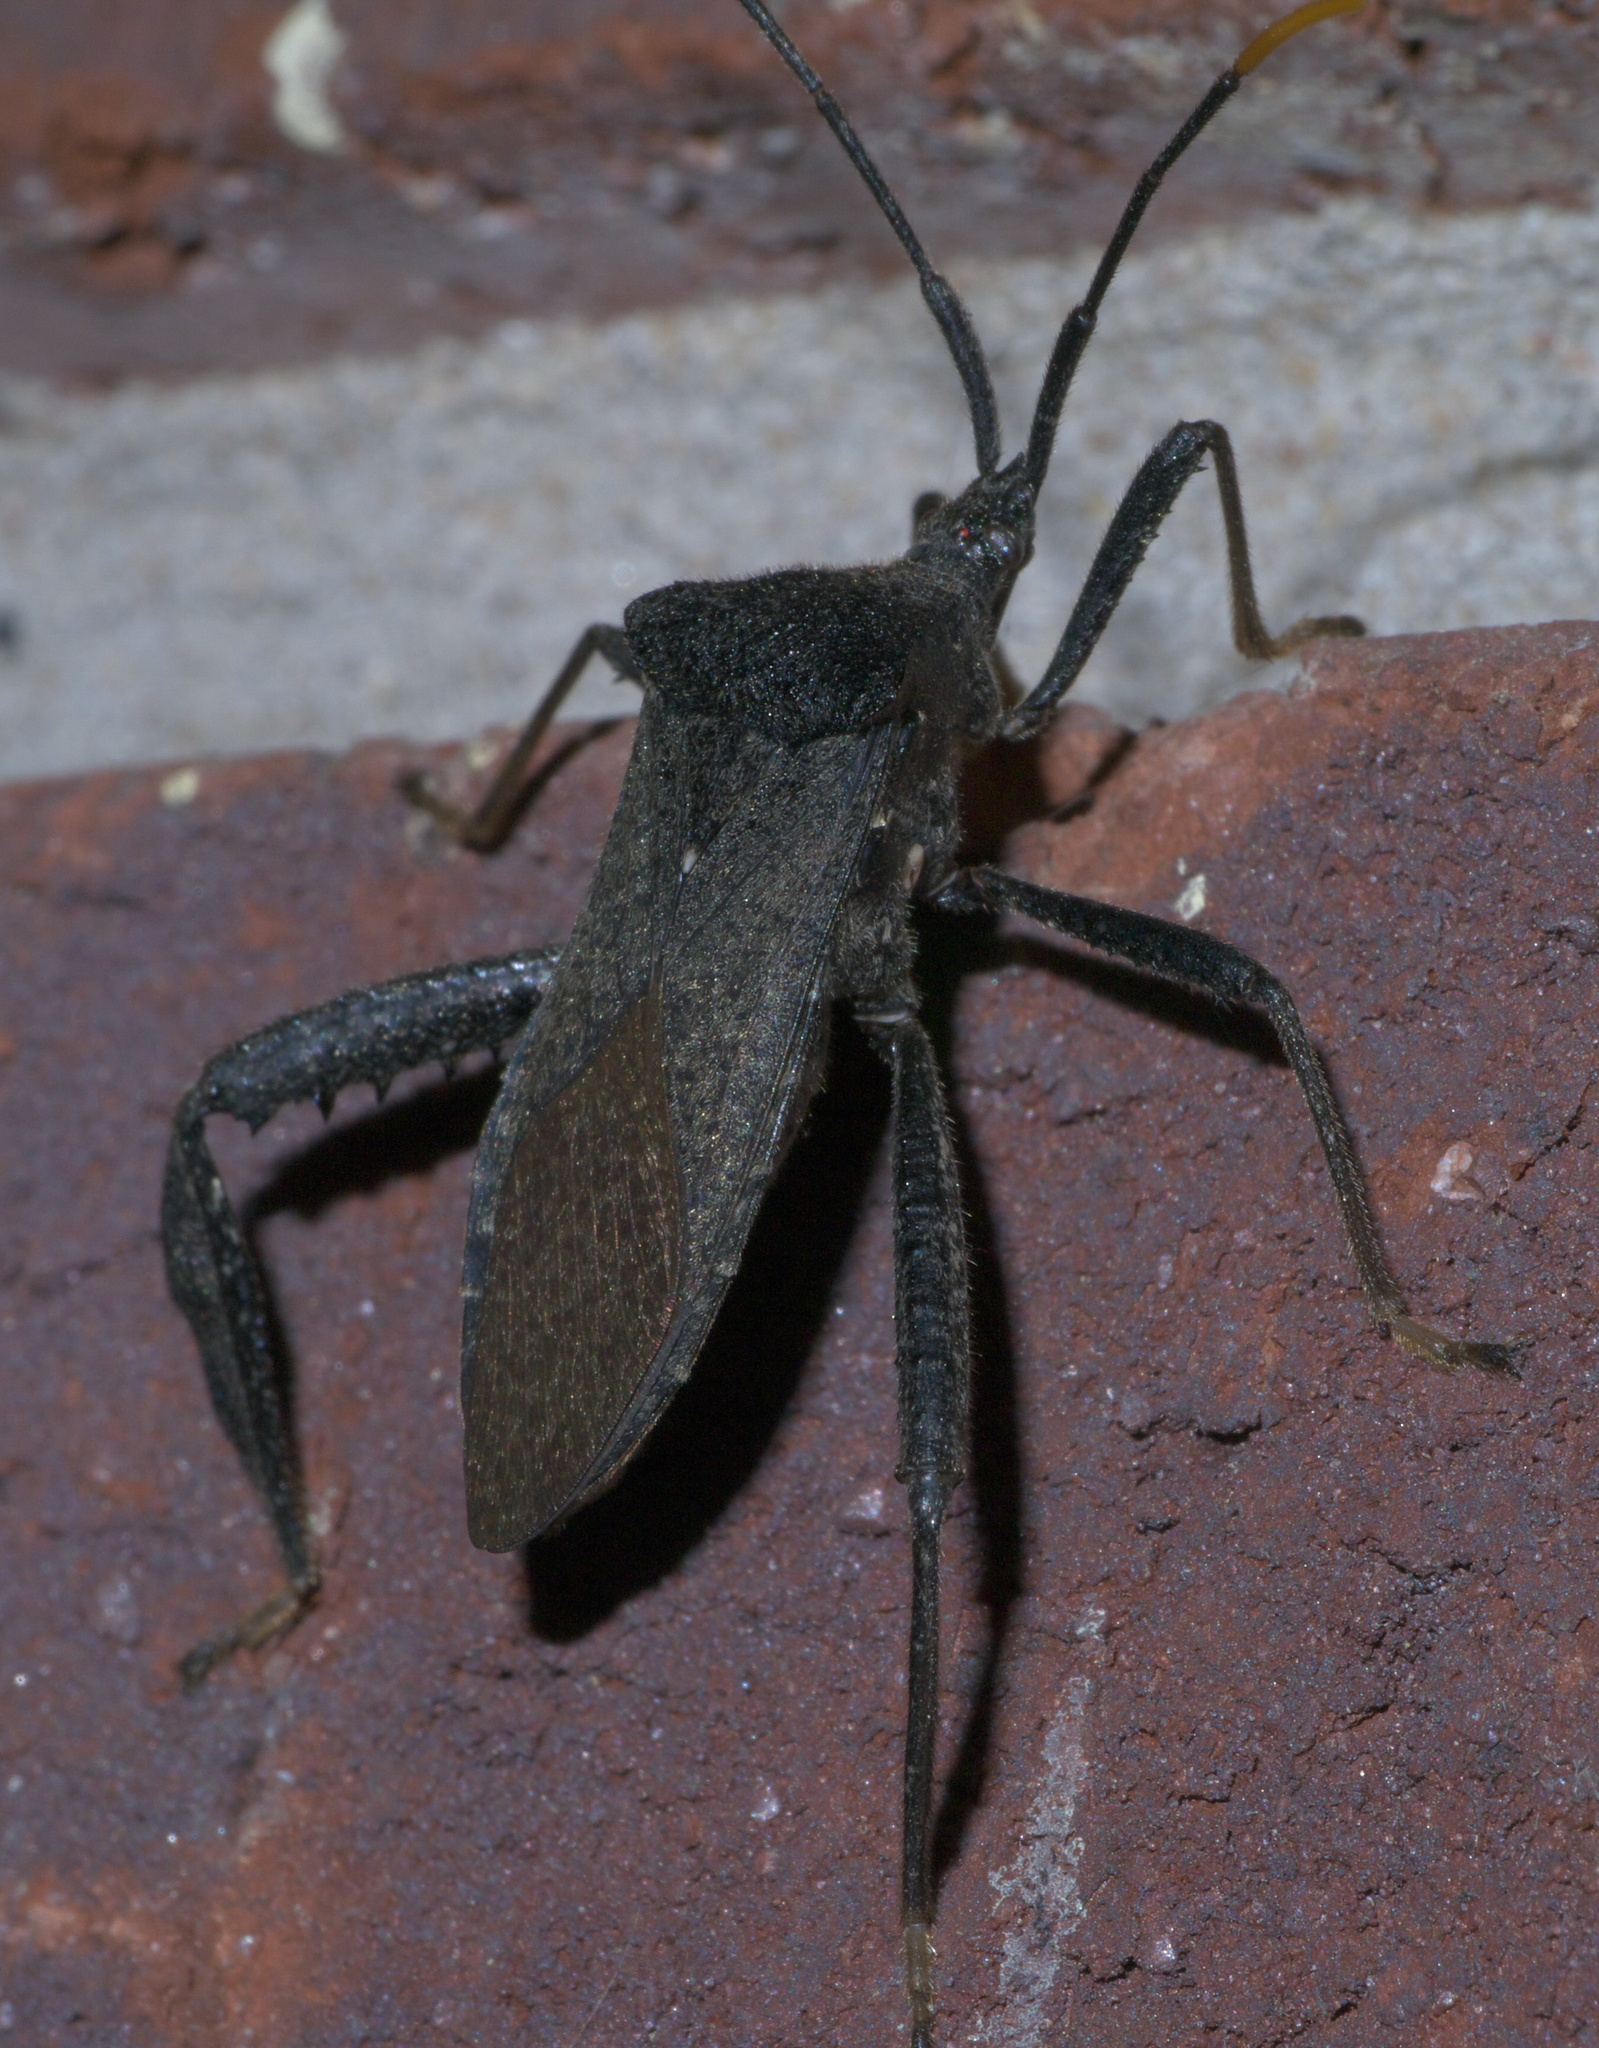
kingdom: Animalia
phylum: Arthropoda
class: Insecta
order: Hemiptera
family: Coreidae
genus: Acanthocephala
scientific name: Acanthocephala terminalis
